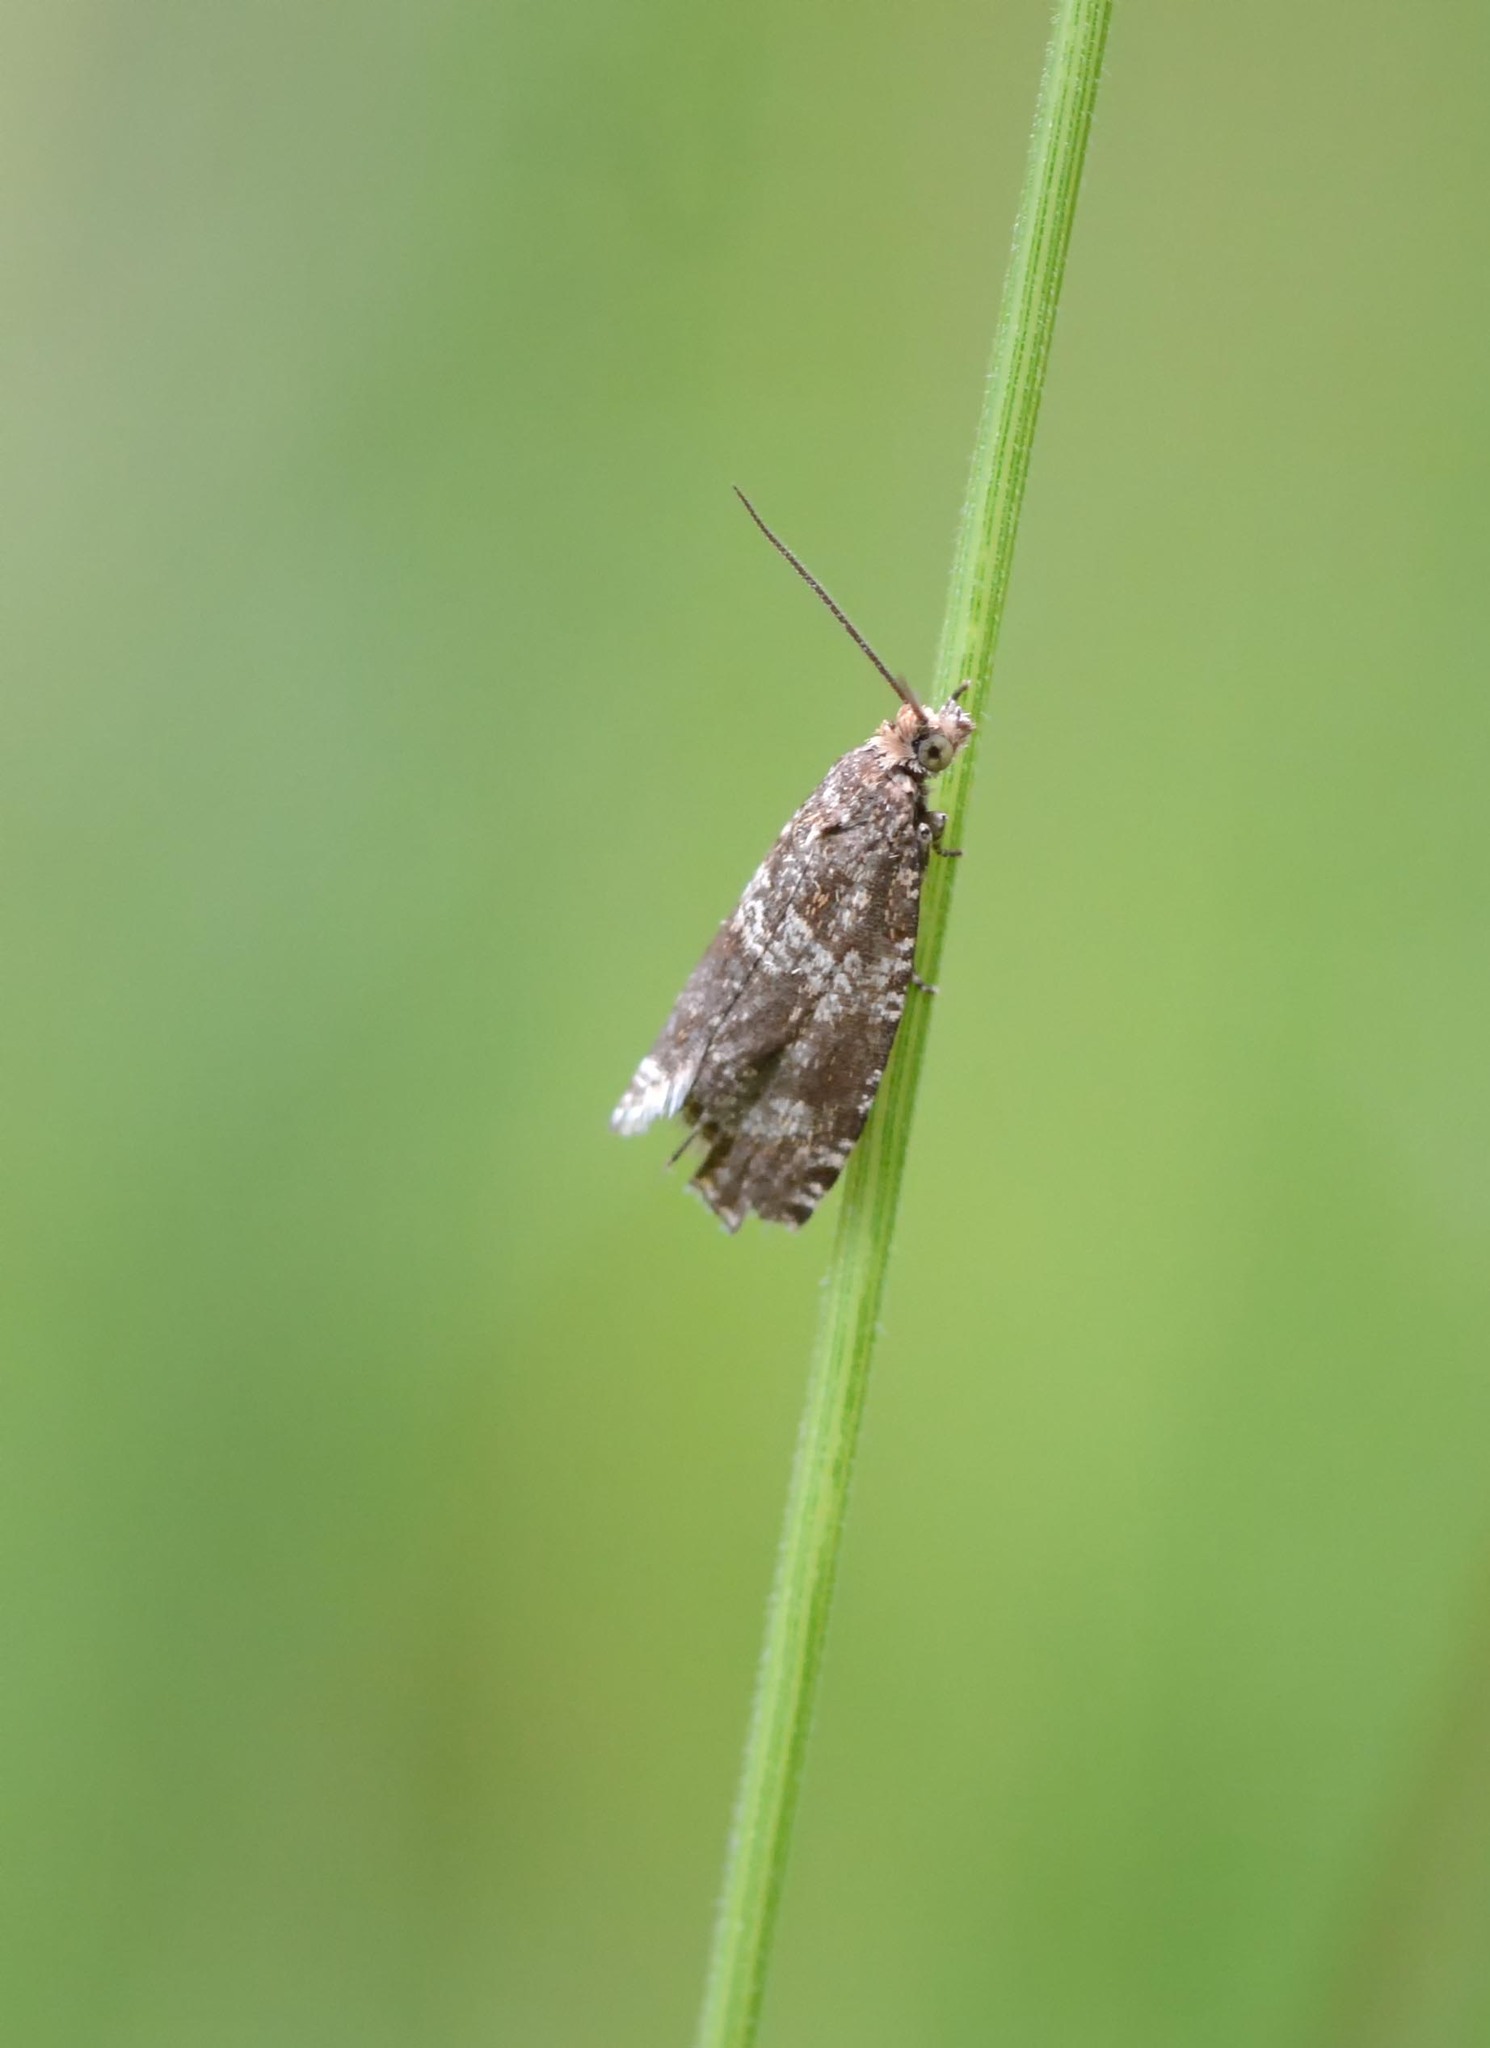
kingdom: Animalia
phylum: Arthropoda
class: Insecta
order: Lepidoptera
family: Tortricidae
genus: Syricoris
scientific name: Syricoris lacunana
